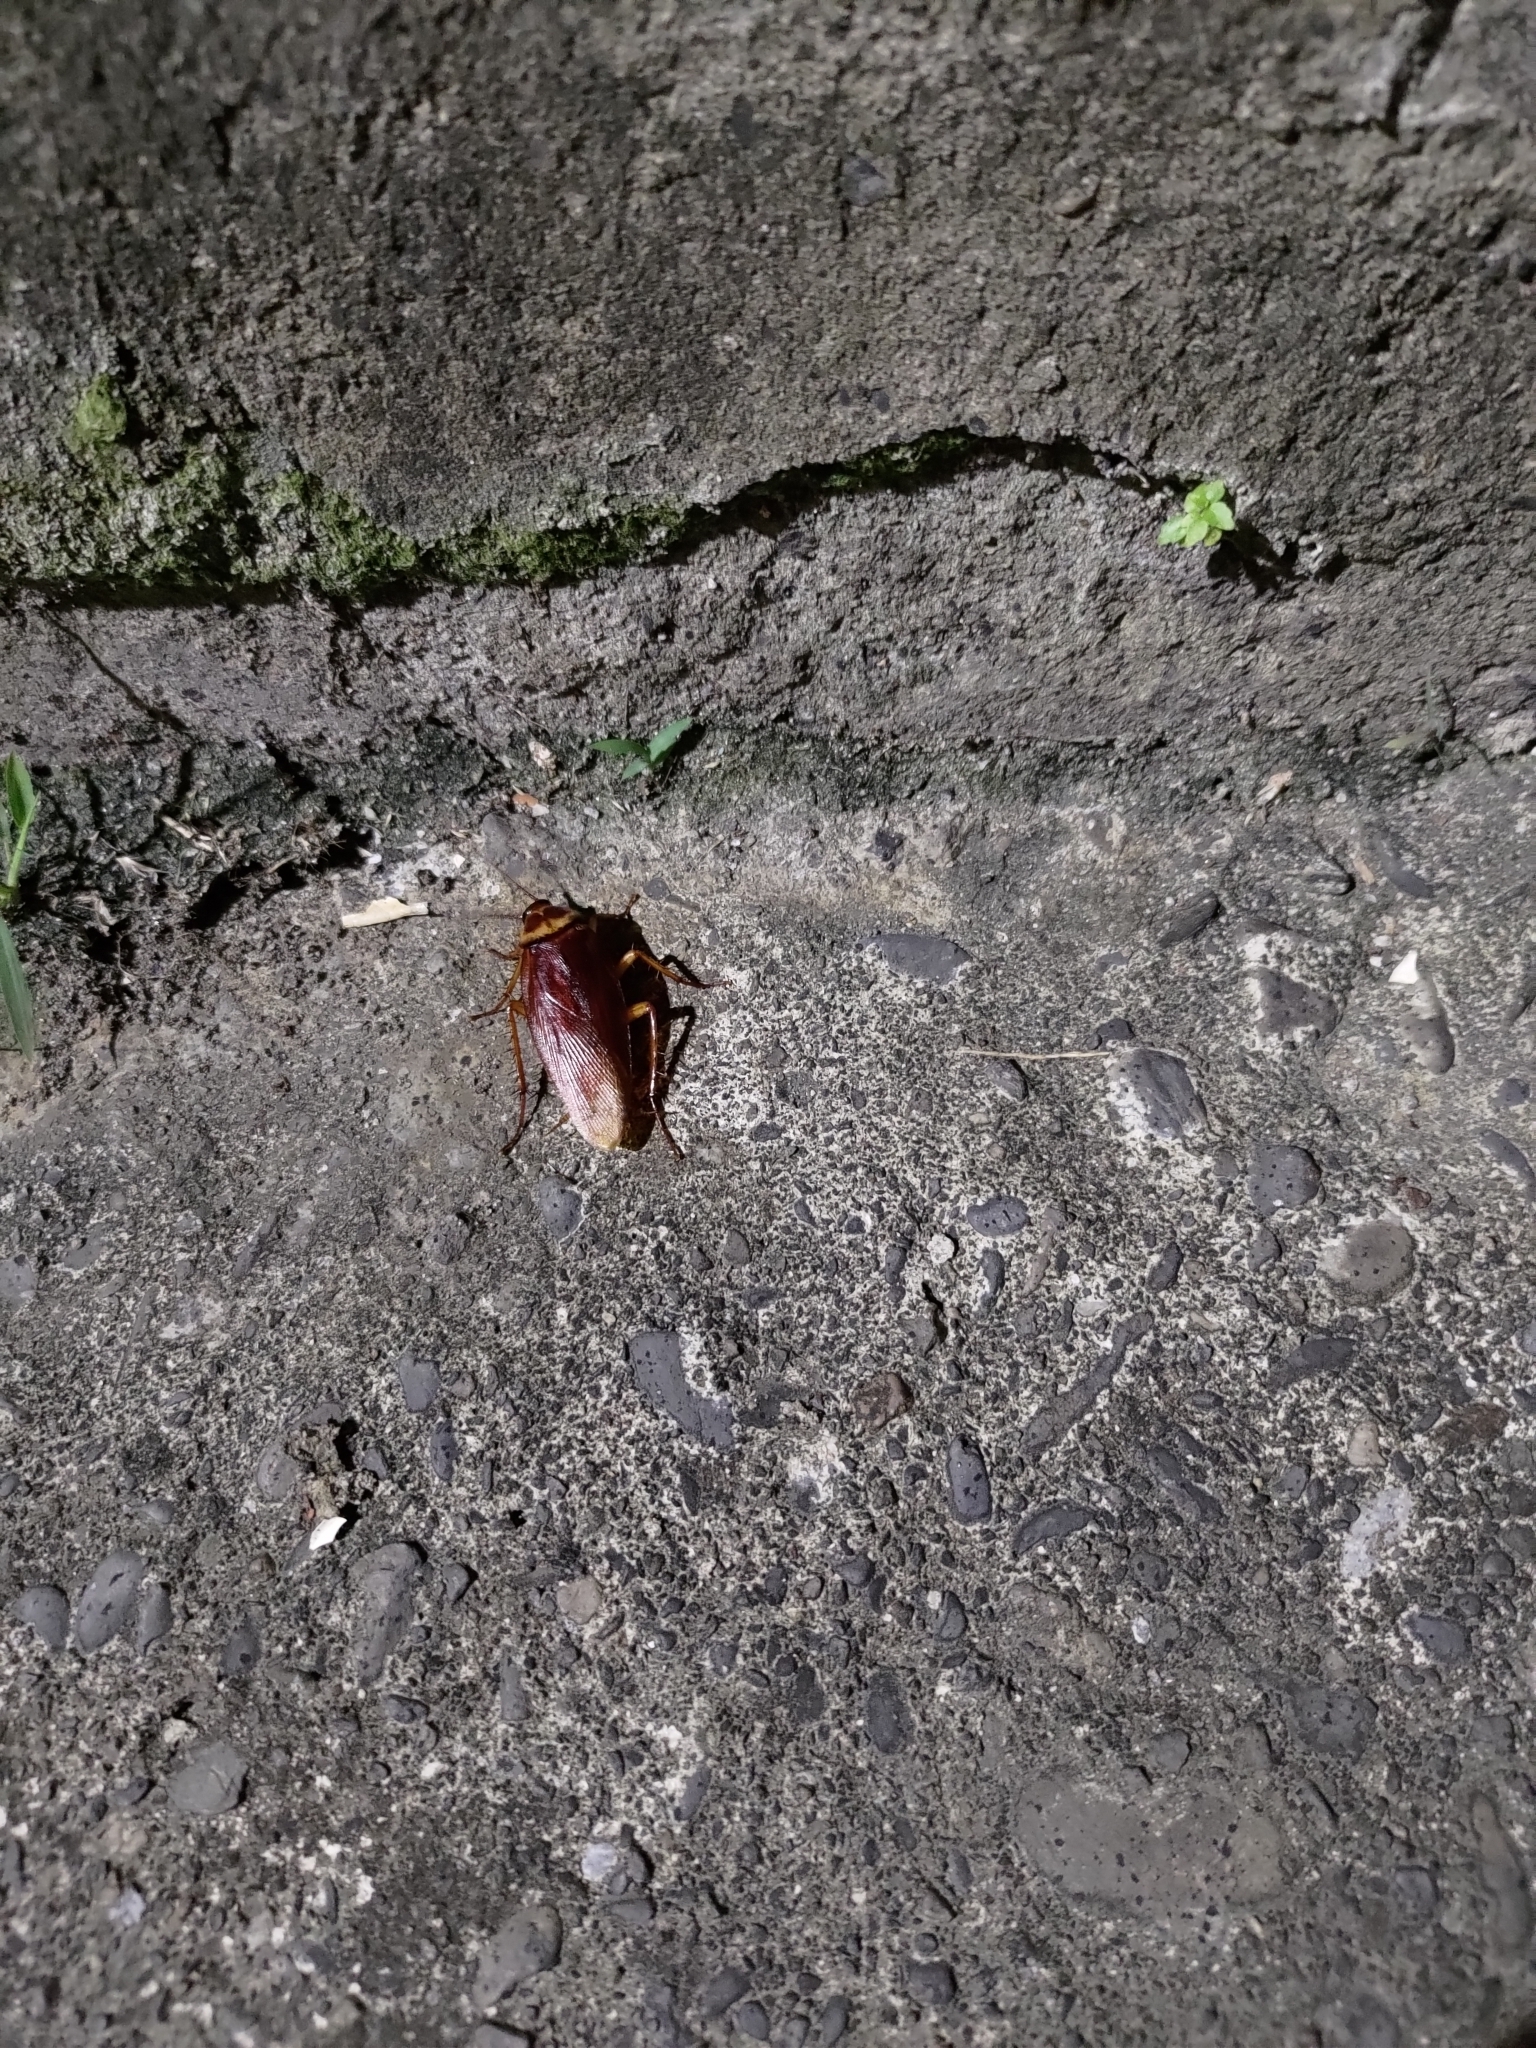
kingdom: Animalia
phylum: Arthropoda
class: Insecta
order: Blattodea
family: Blattidae
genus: Periplaneta
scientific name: Periplaneta americana
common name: American cockroach
